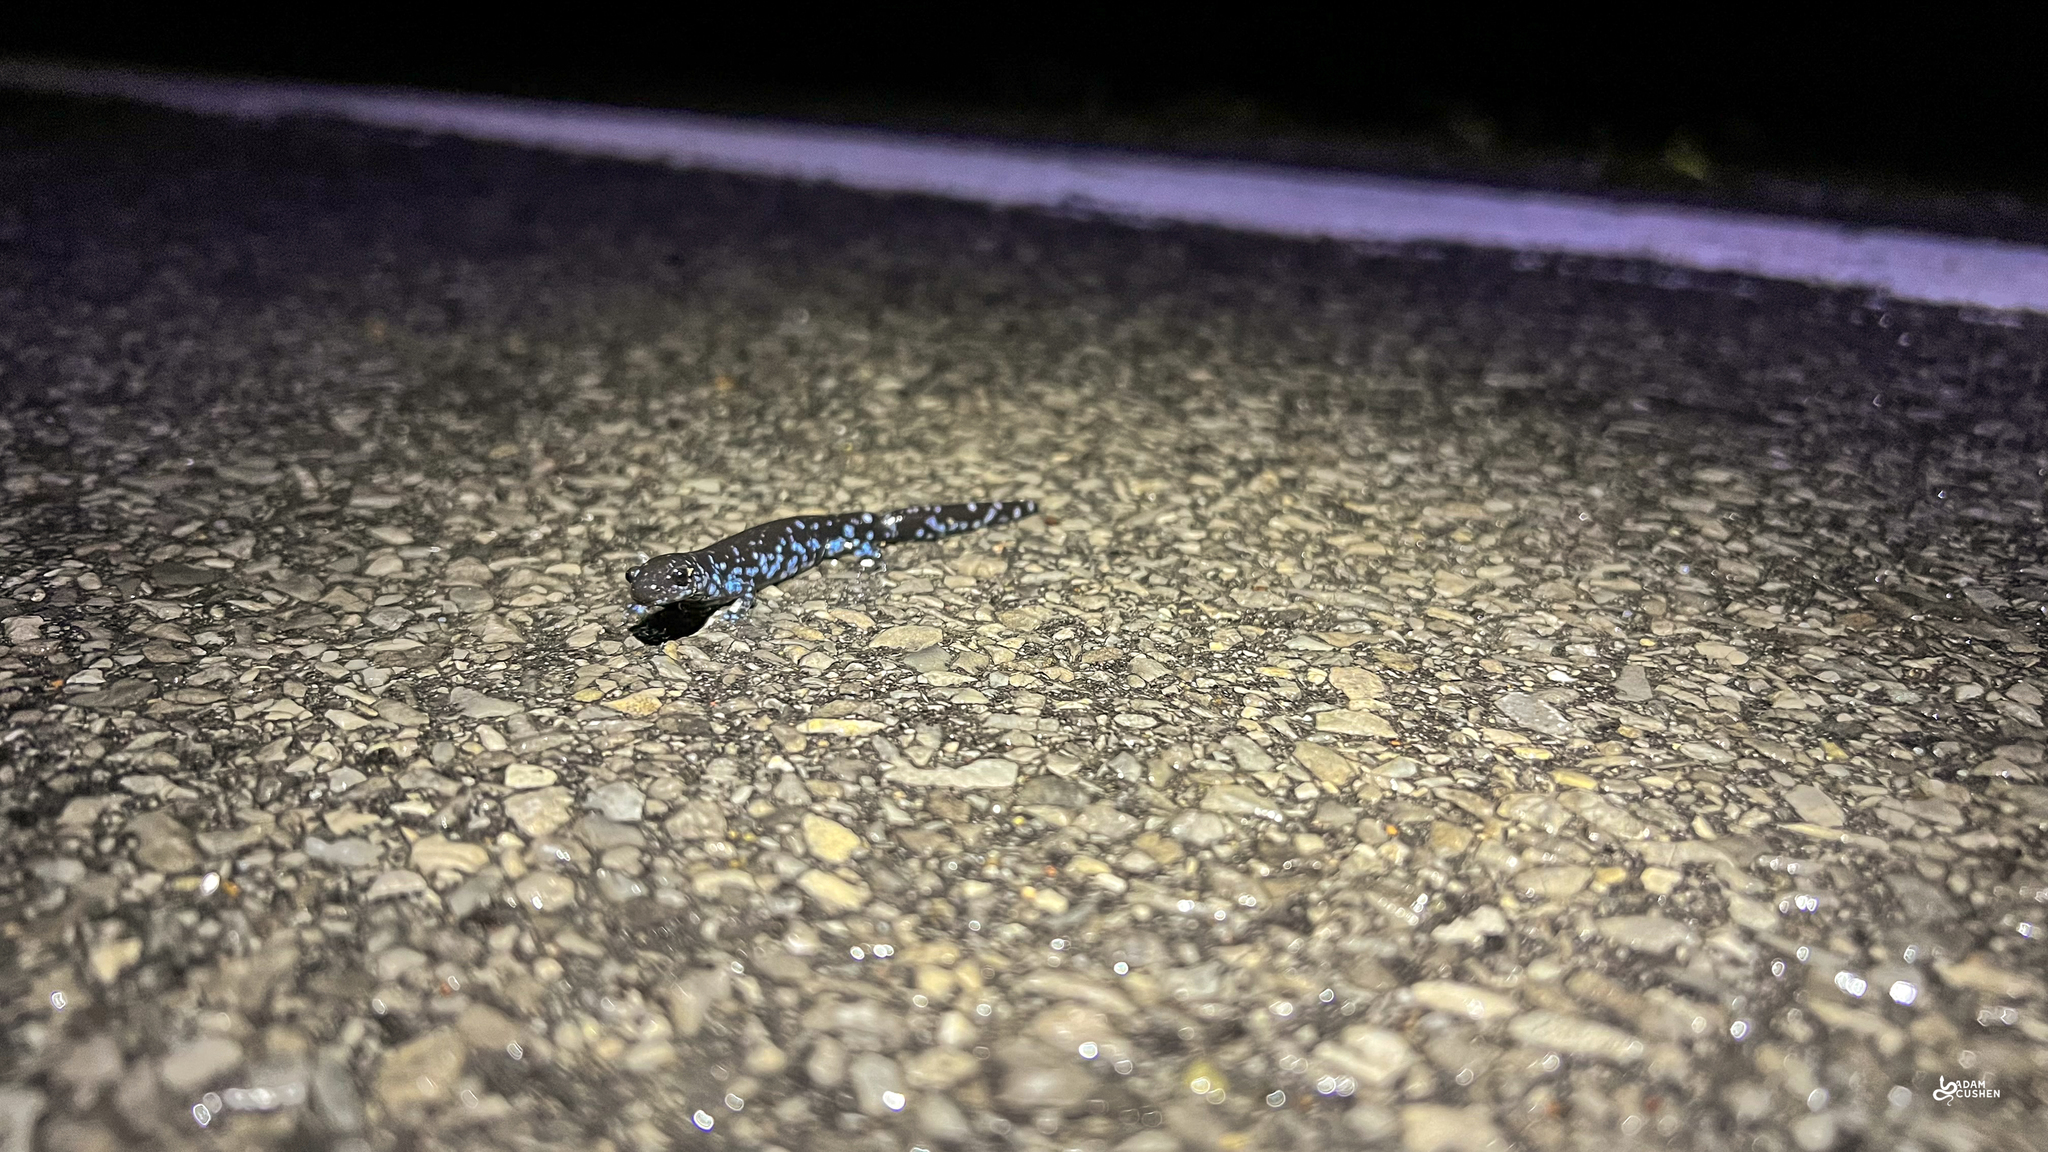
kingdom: Animalia
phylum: Chordata
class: Amphibia
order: Caudata
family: Ambystomatidae
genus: Ambystoma
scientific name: Ambystoma laterale
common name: Blue-spotted salamander
